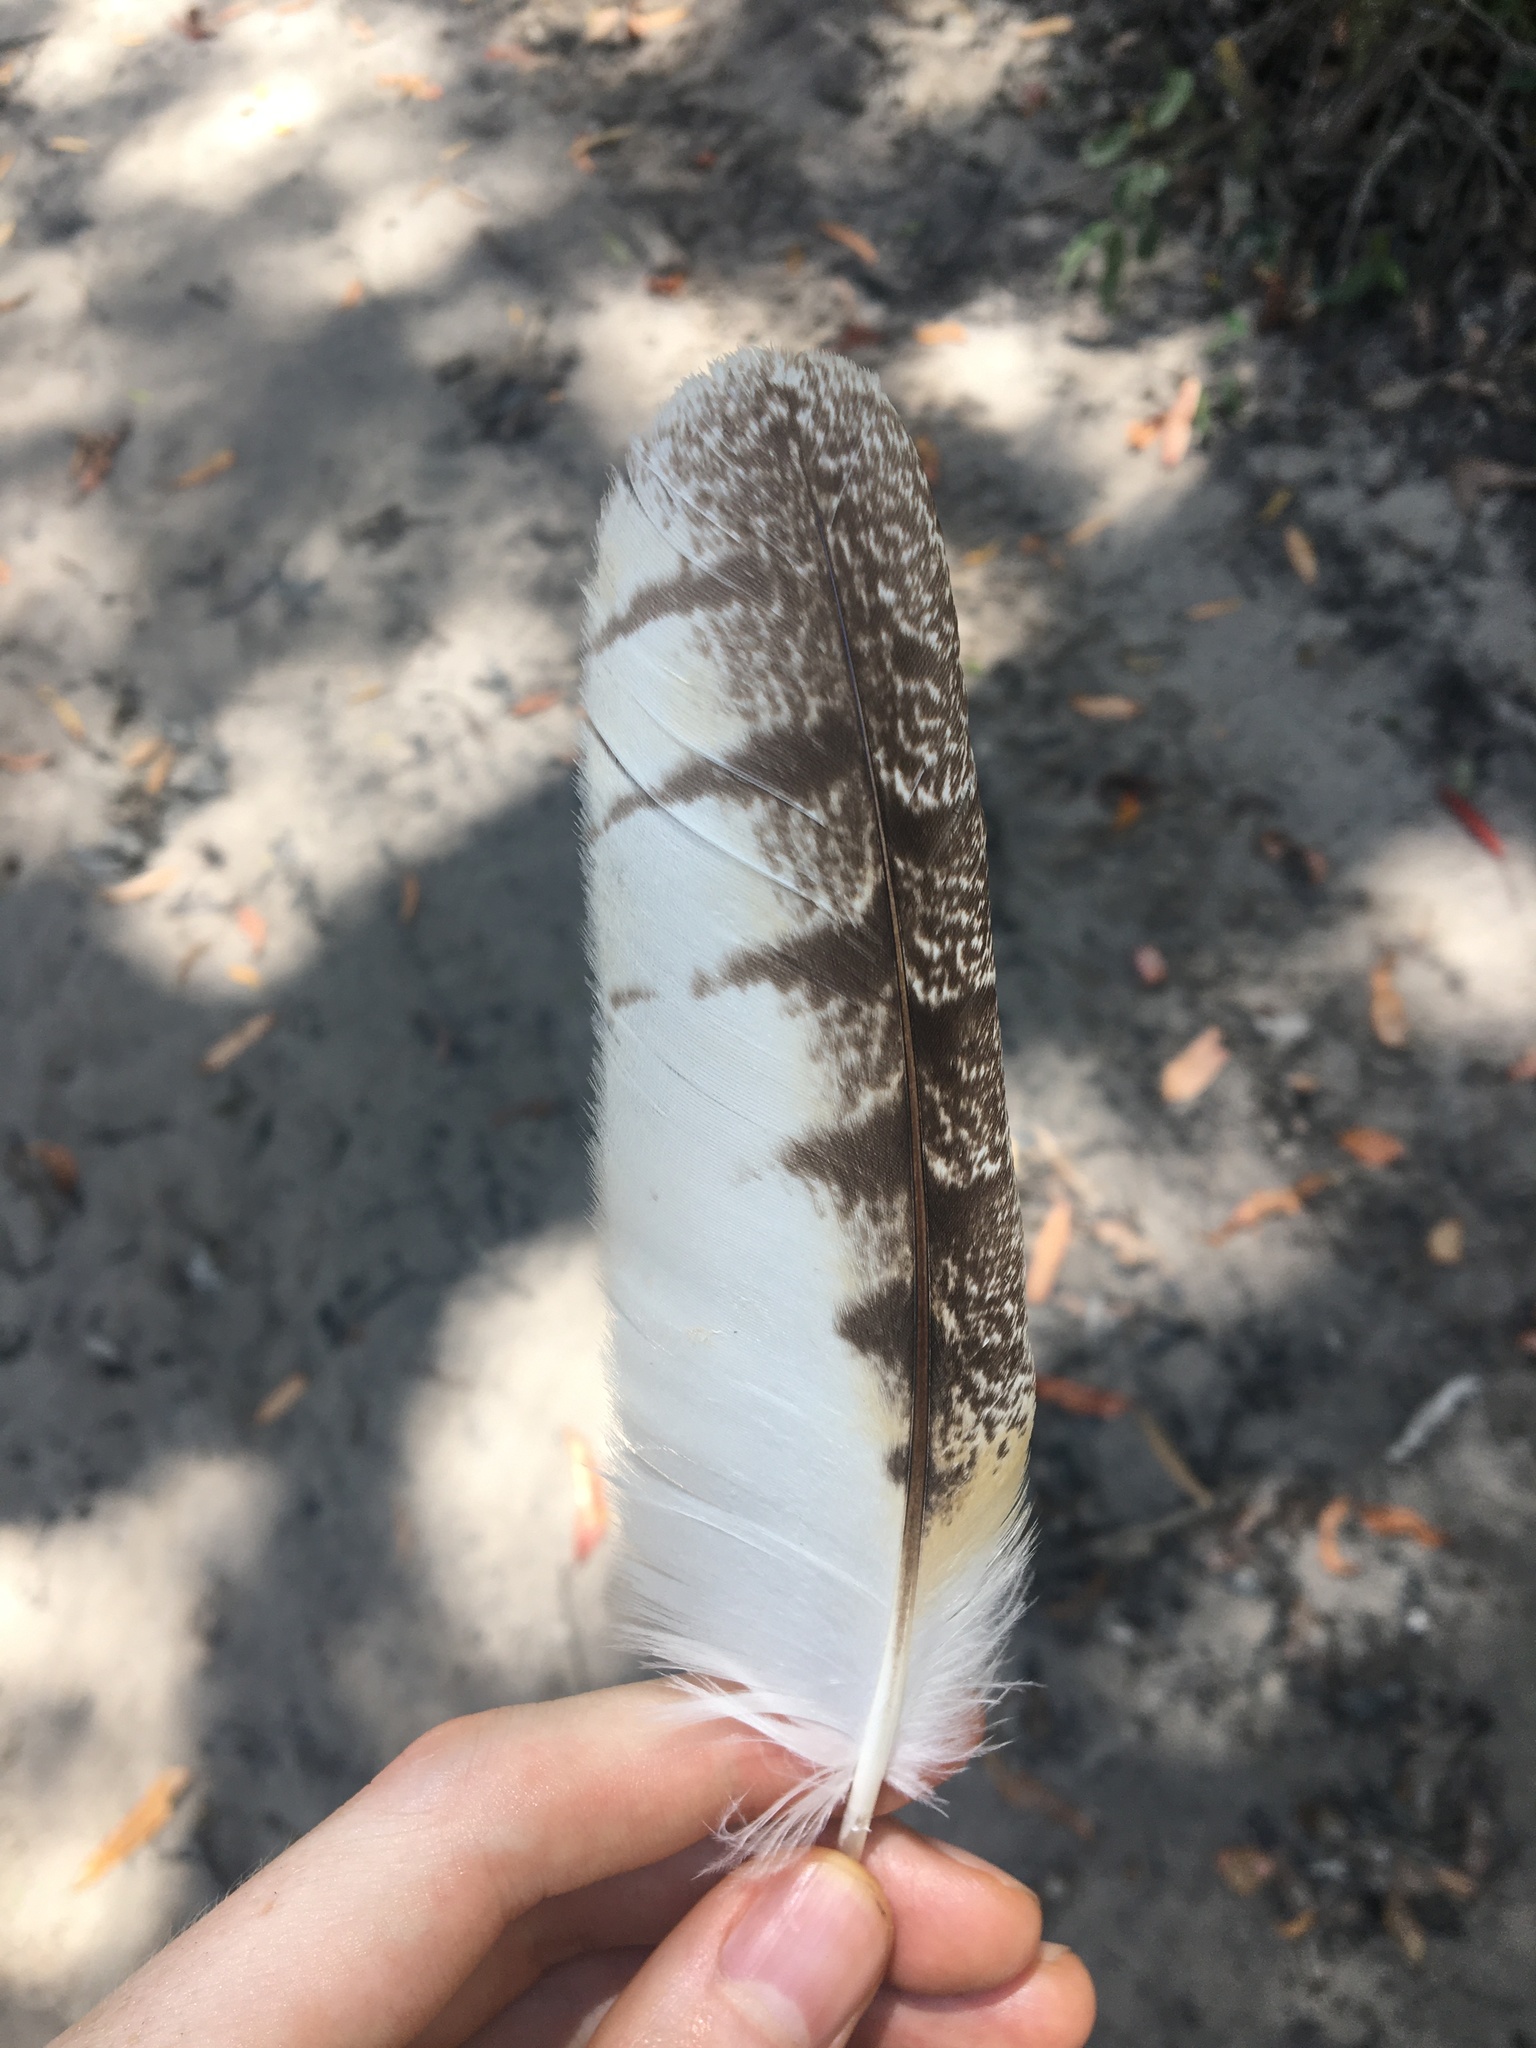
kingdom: Animalia
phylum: Chordata
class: Aves
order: Strigiformes
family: Tytonidae
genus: Tyto
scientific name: Tyto novaehollandiae
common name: Australian masked owl
